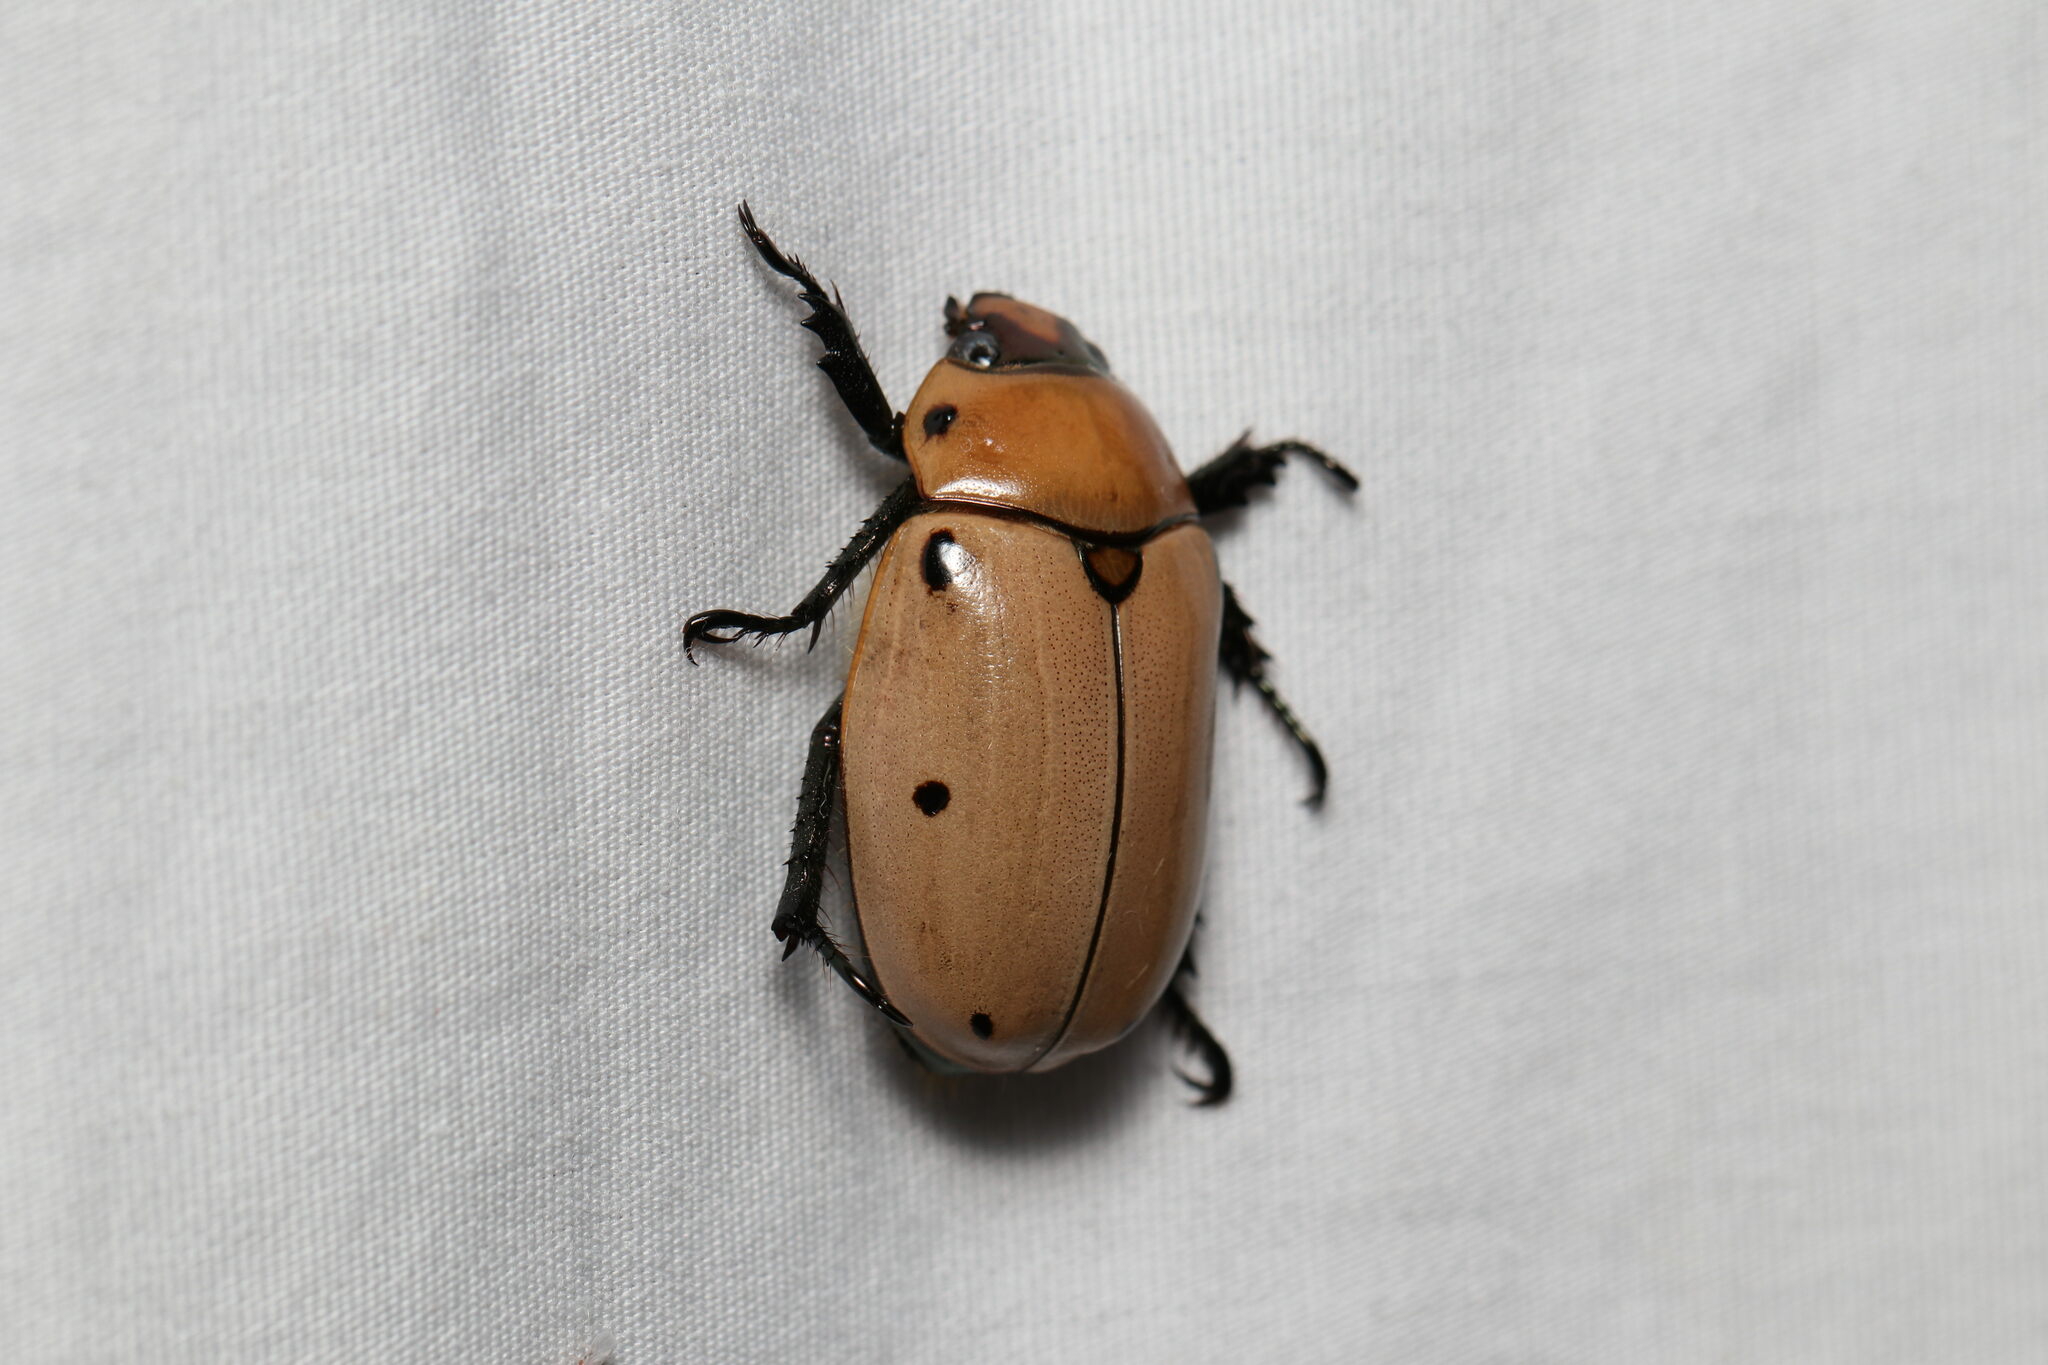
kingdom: Animalia
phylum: Arthropoda
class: Insecta
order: Coleoptera
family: Scarabaeidae
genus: Pelidnota
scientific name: Pelidnota punctata
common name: Grapevine beetle
